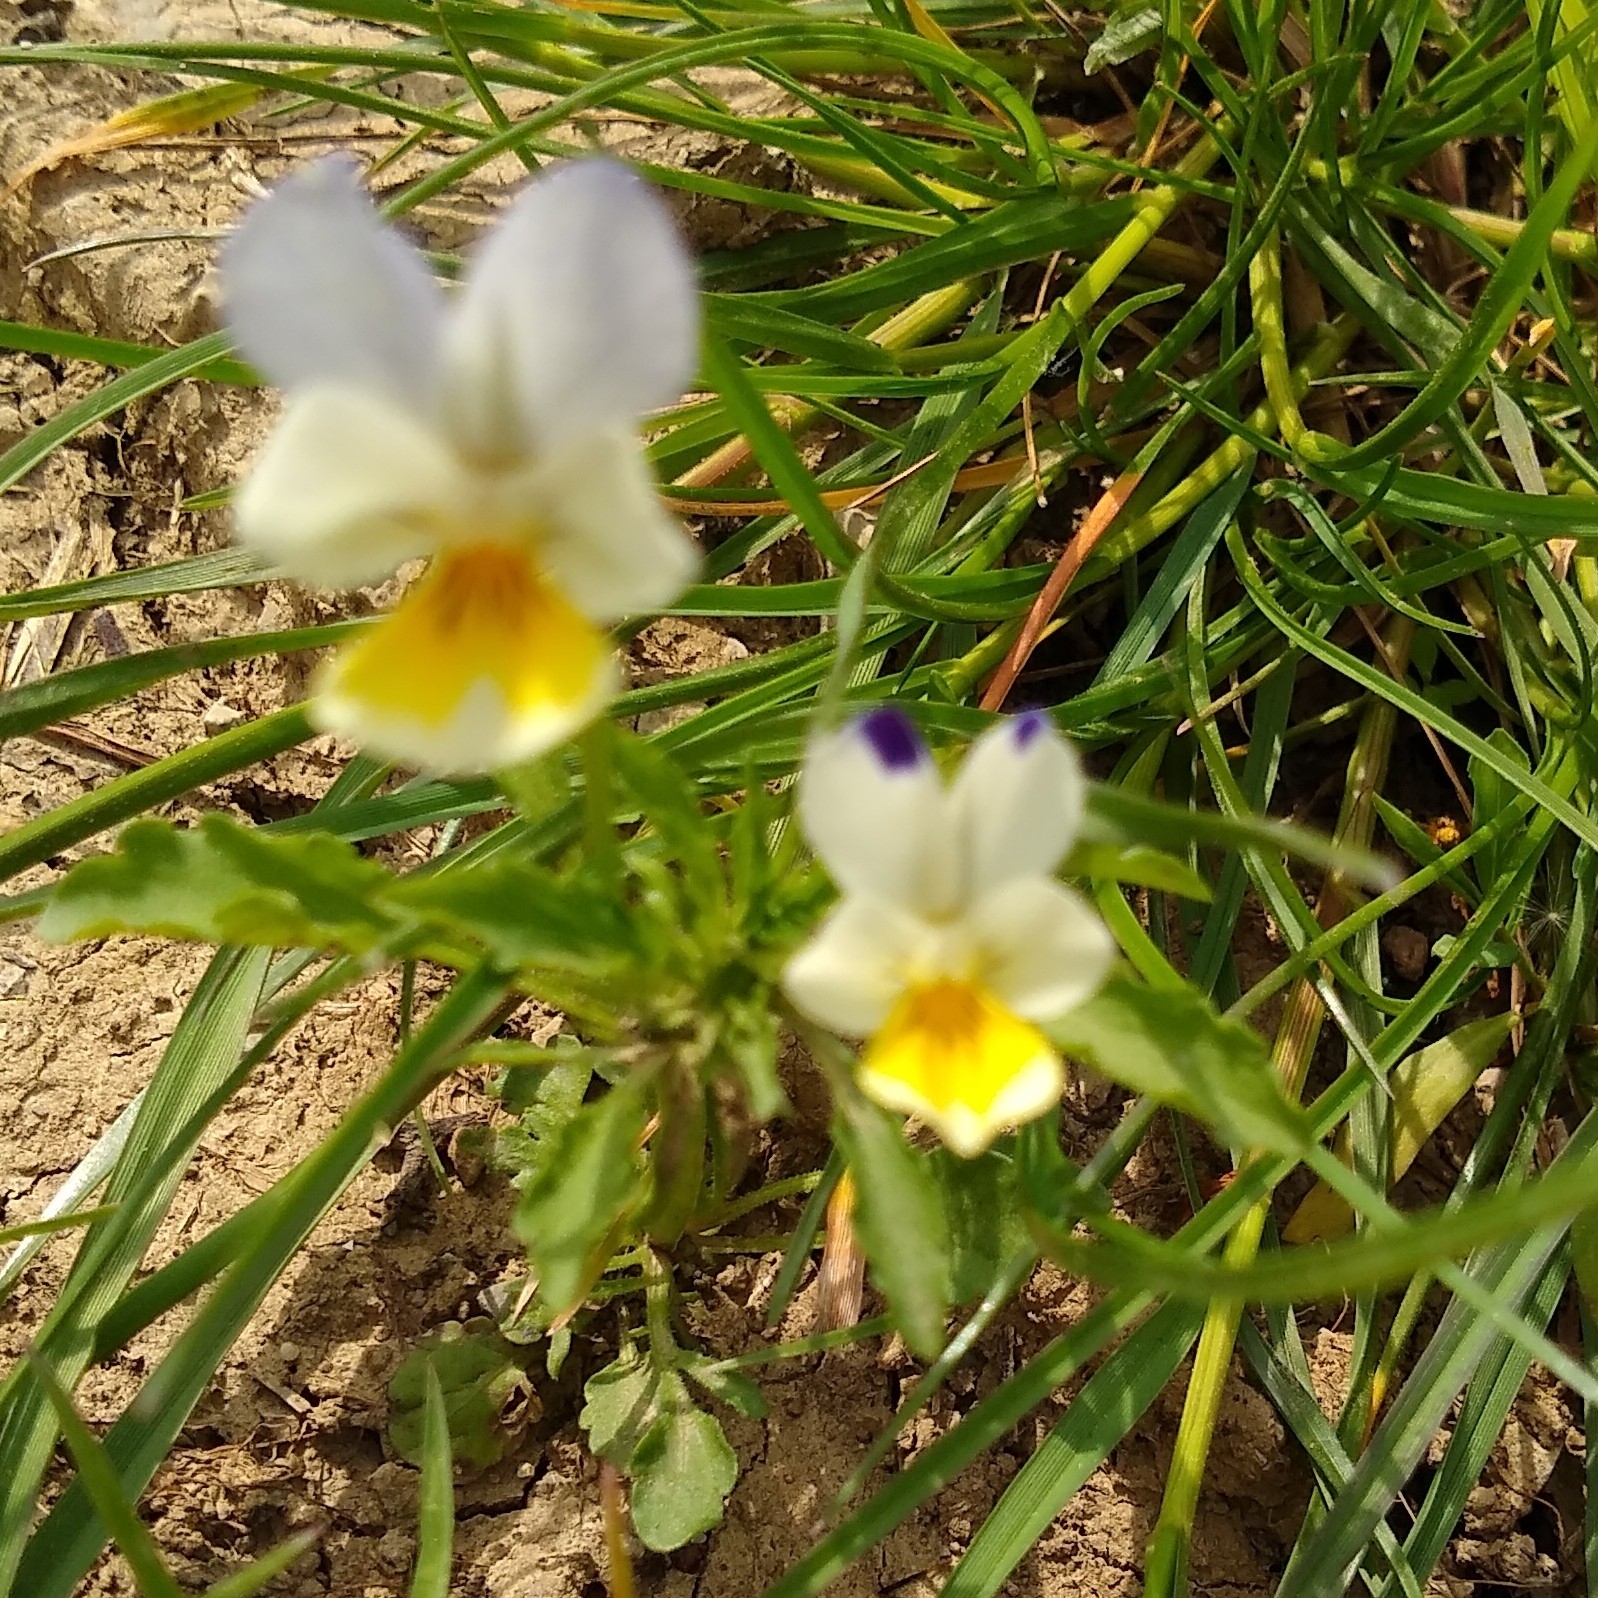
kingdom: Plantae
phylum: Tracheophyta
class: Magnoliopsida
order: Malpighiales
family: Violaceae
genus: Viola
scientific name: Viola arvensis
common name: Field pansy
